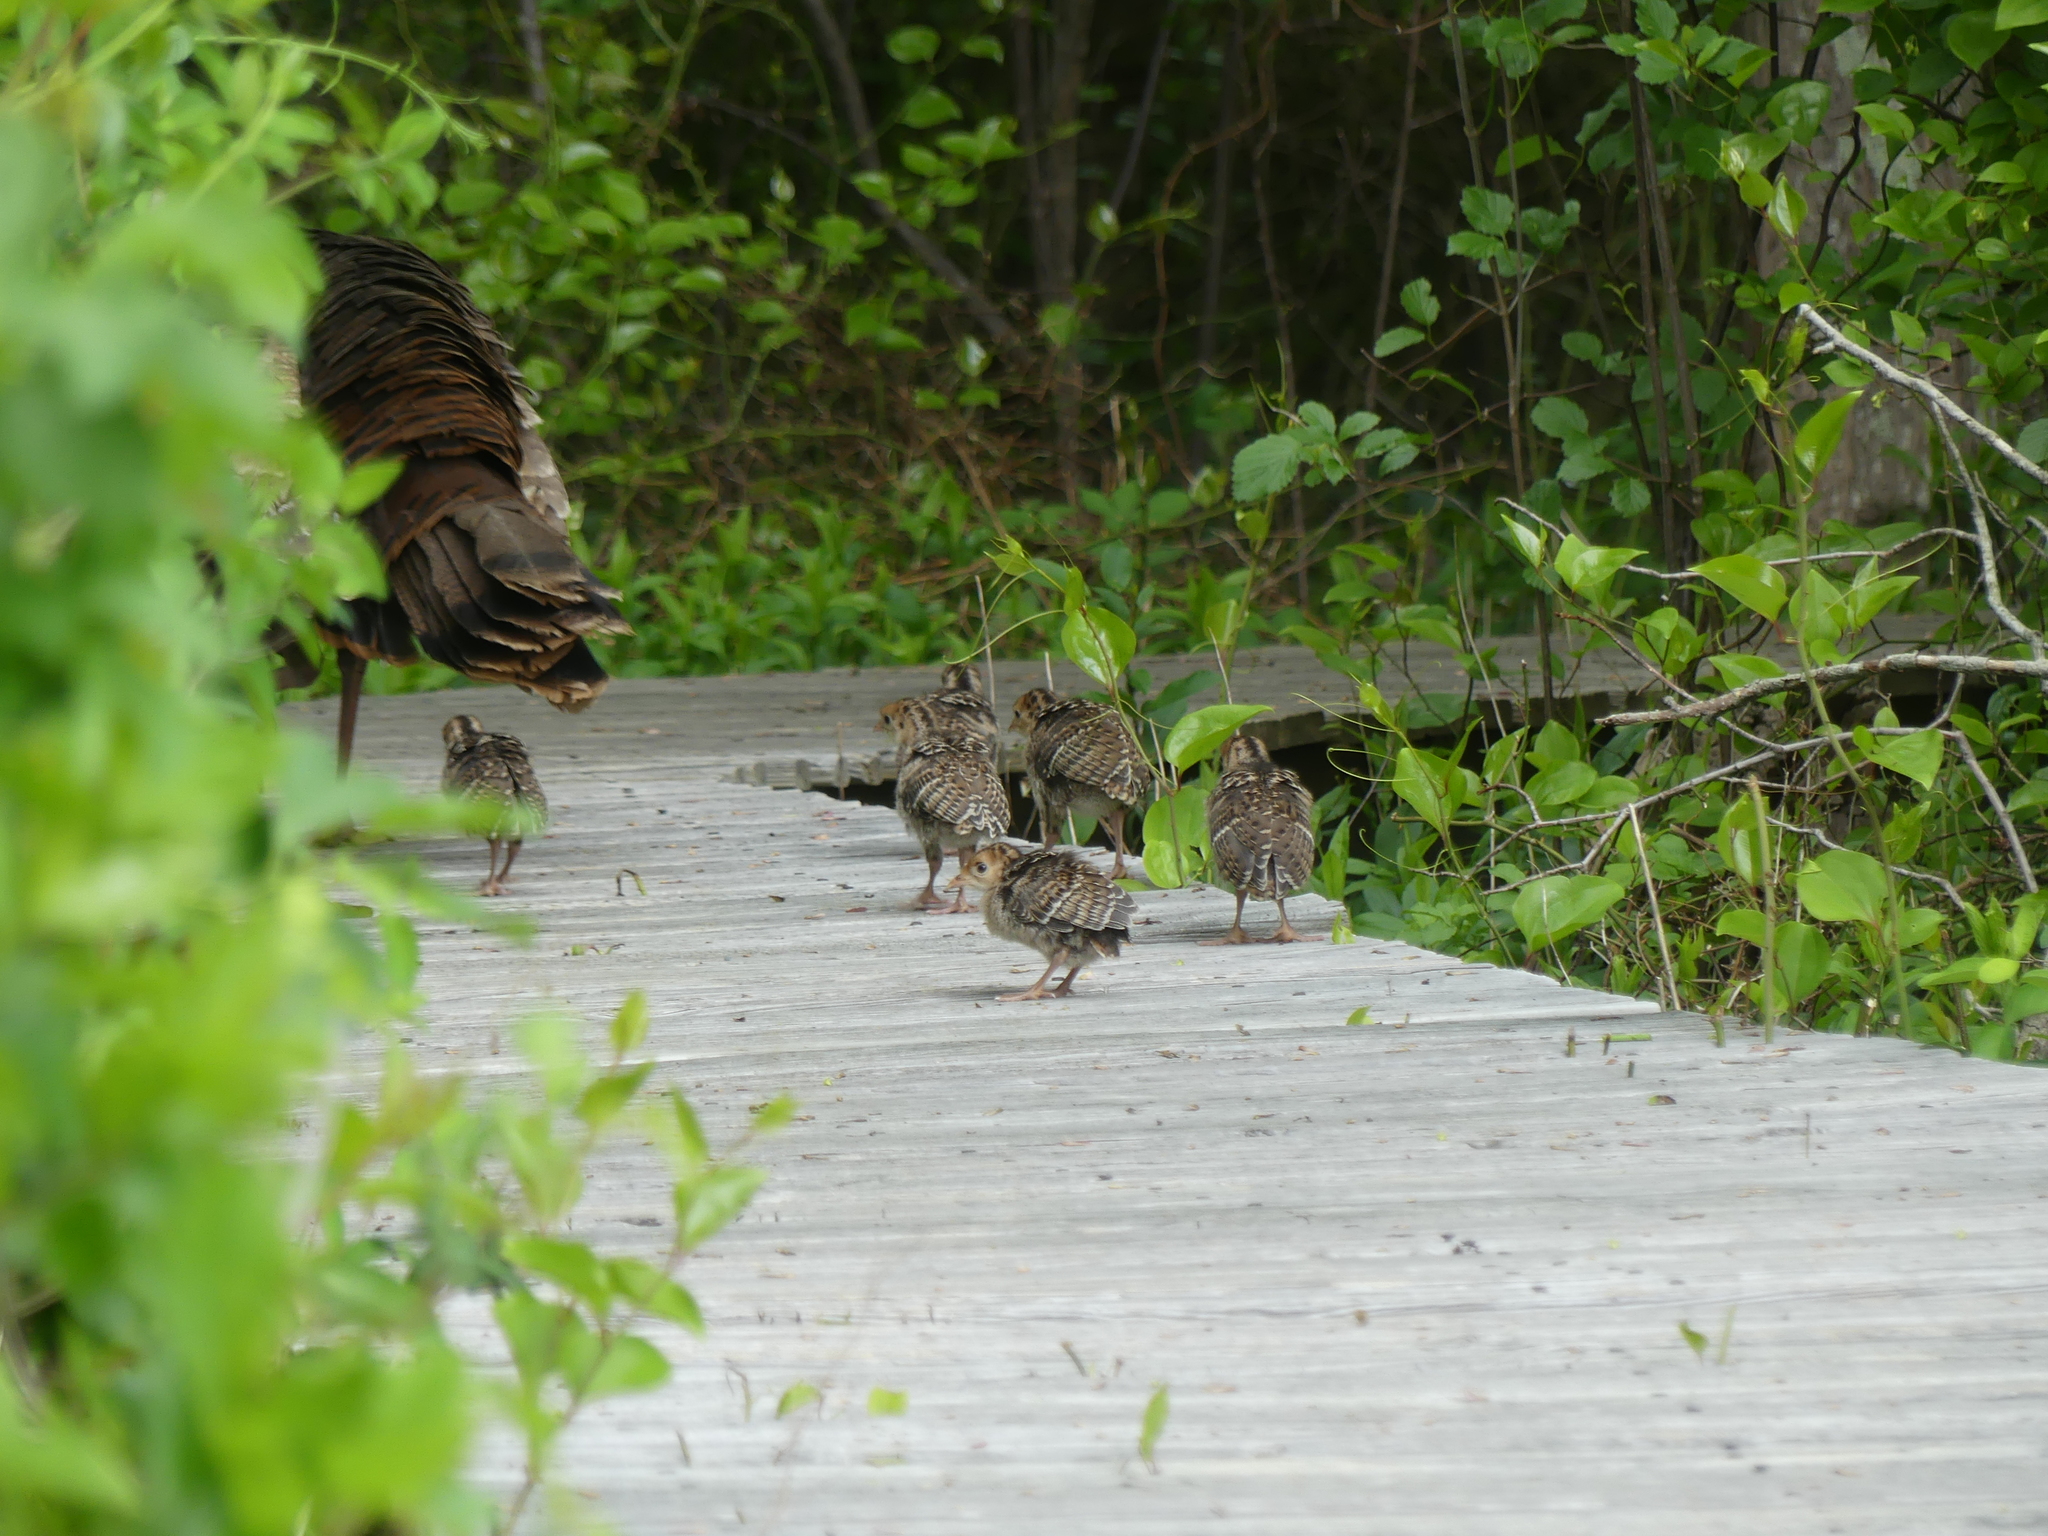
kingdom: Animalia
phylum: Chordata
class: Aves
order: Galliformes
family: Phasianidae
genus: Meleagris
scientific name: Meleagris gallopavo
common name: Wild turkey
